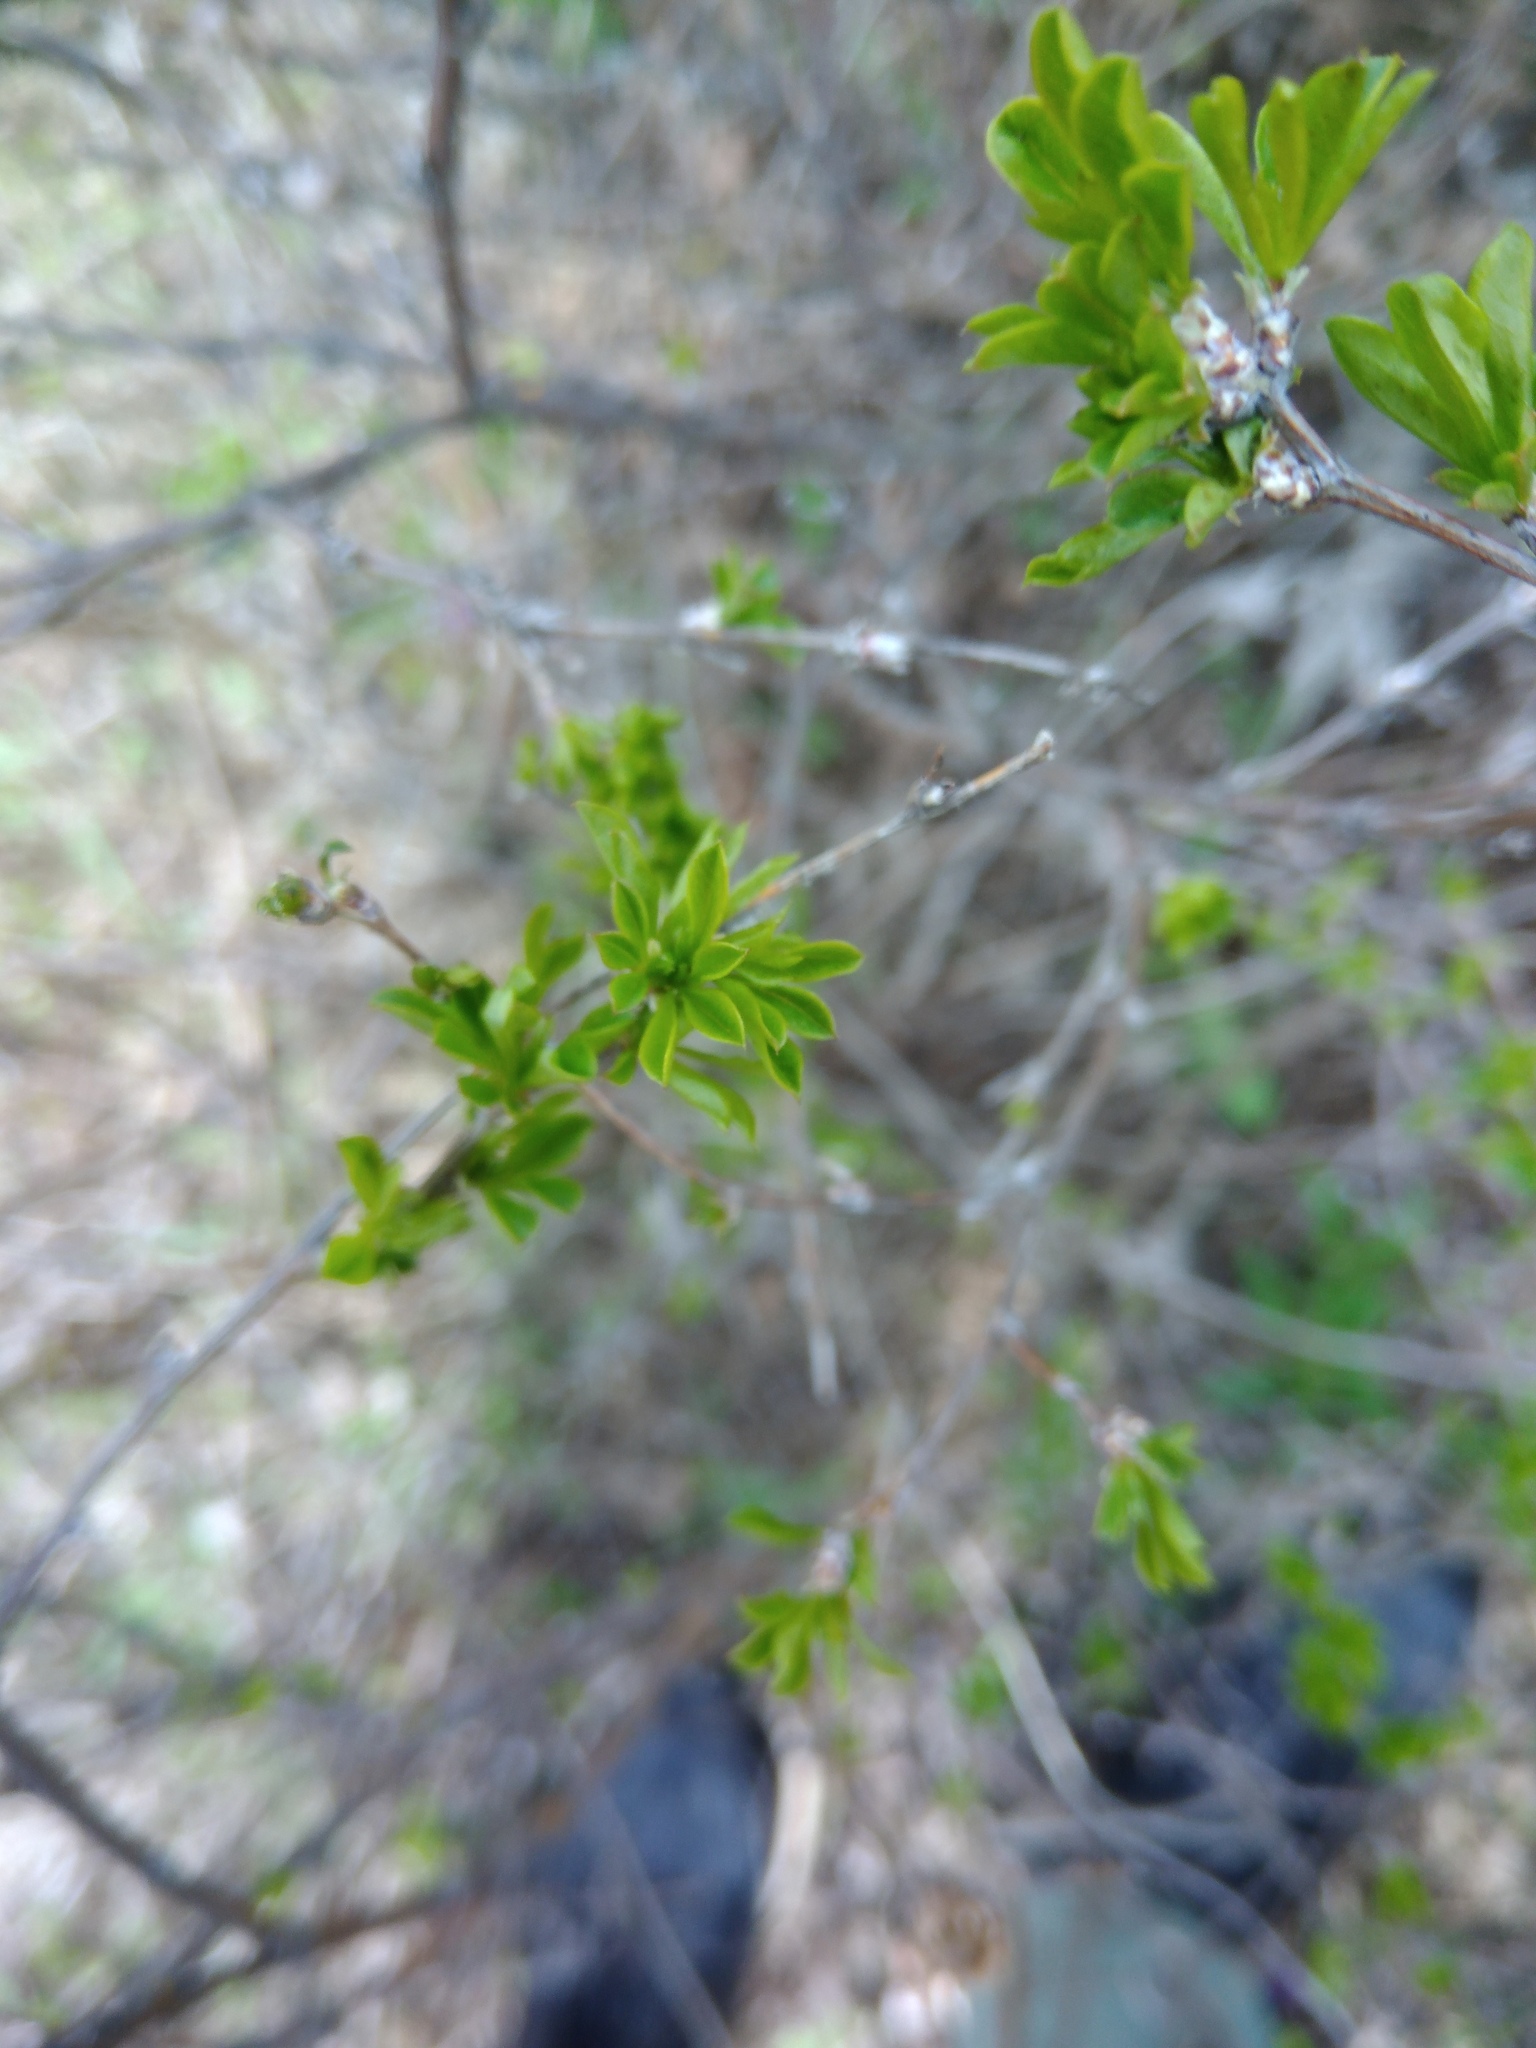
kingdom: Plantae
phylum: Tracheophyta
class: Magnoliopsida
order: Fabales
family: Fabaceae
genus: Caragana
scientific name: Caragana frutex
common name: Russian peashrub
